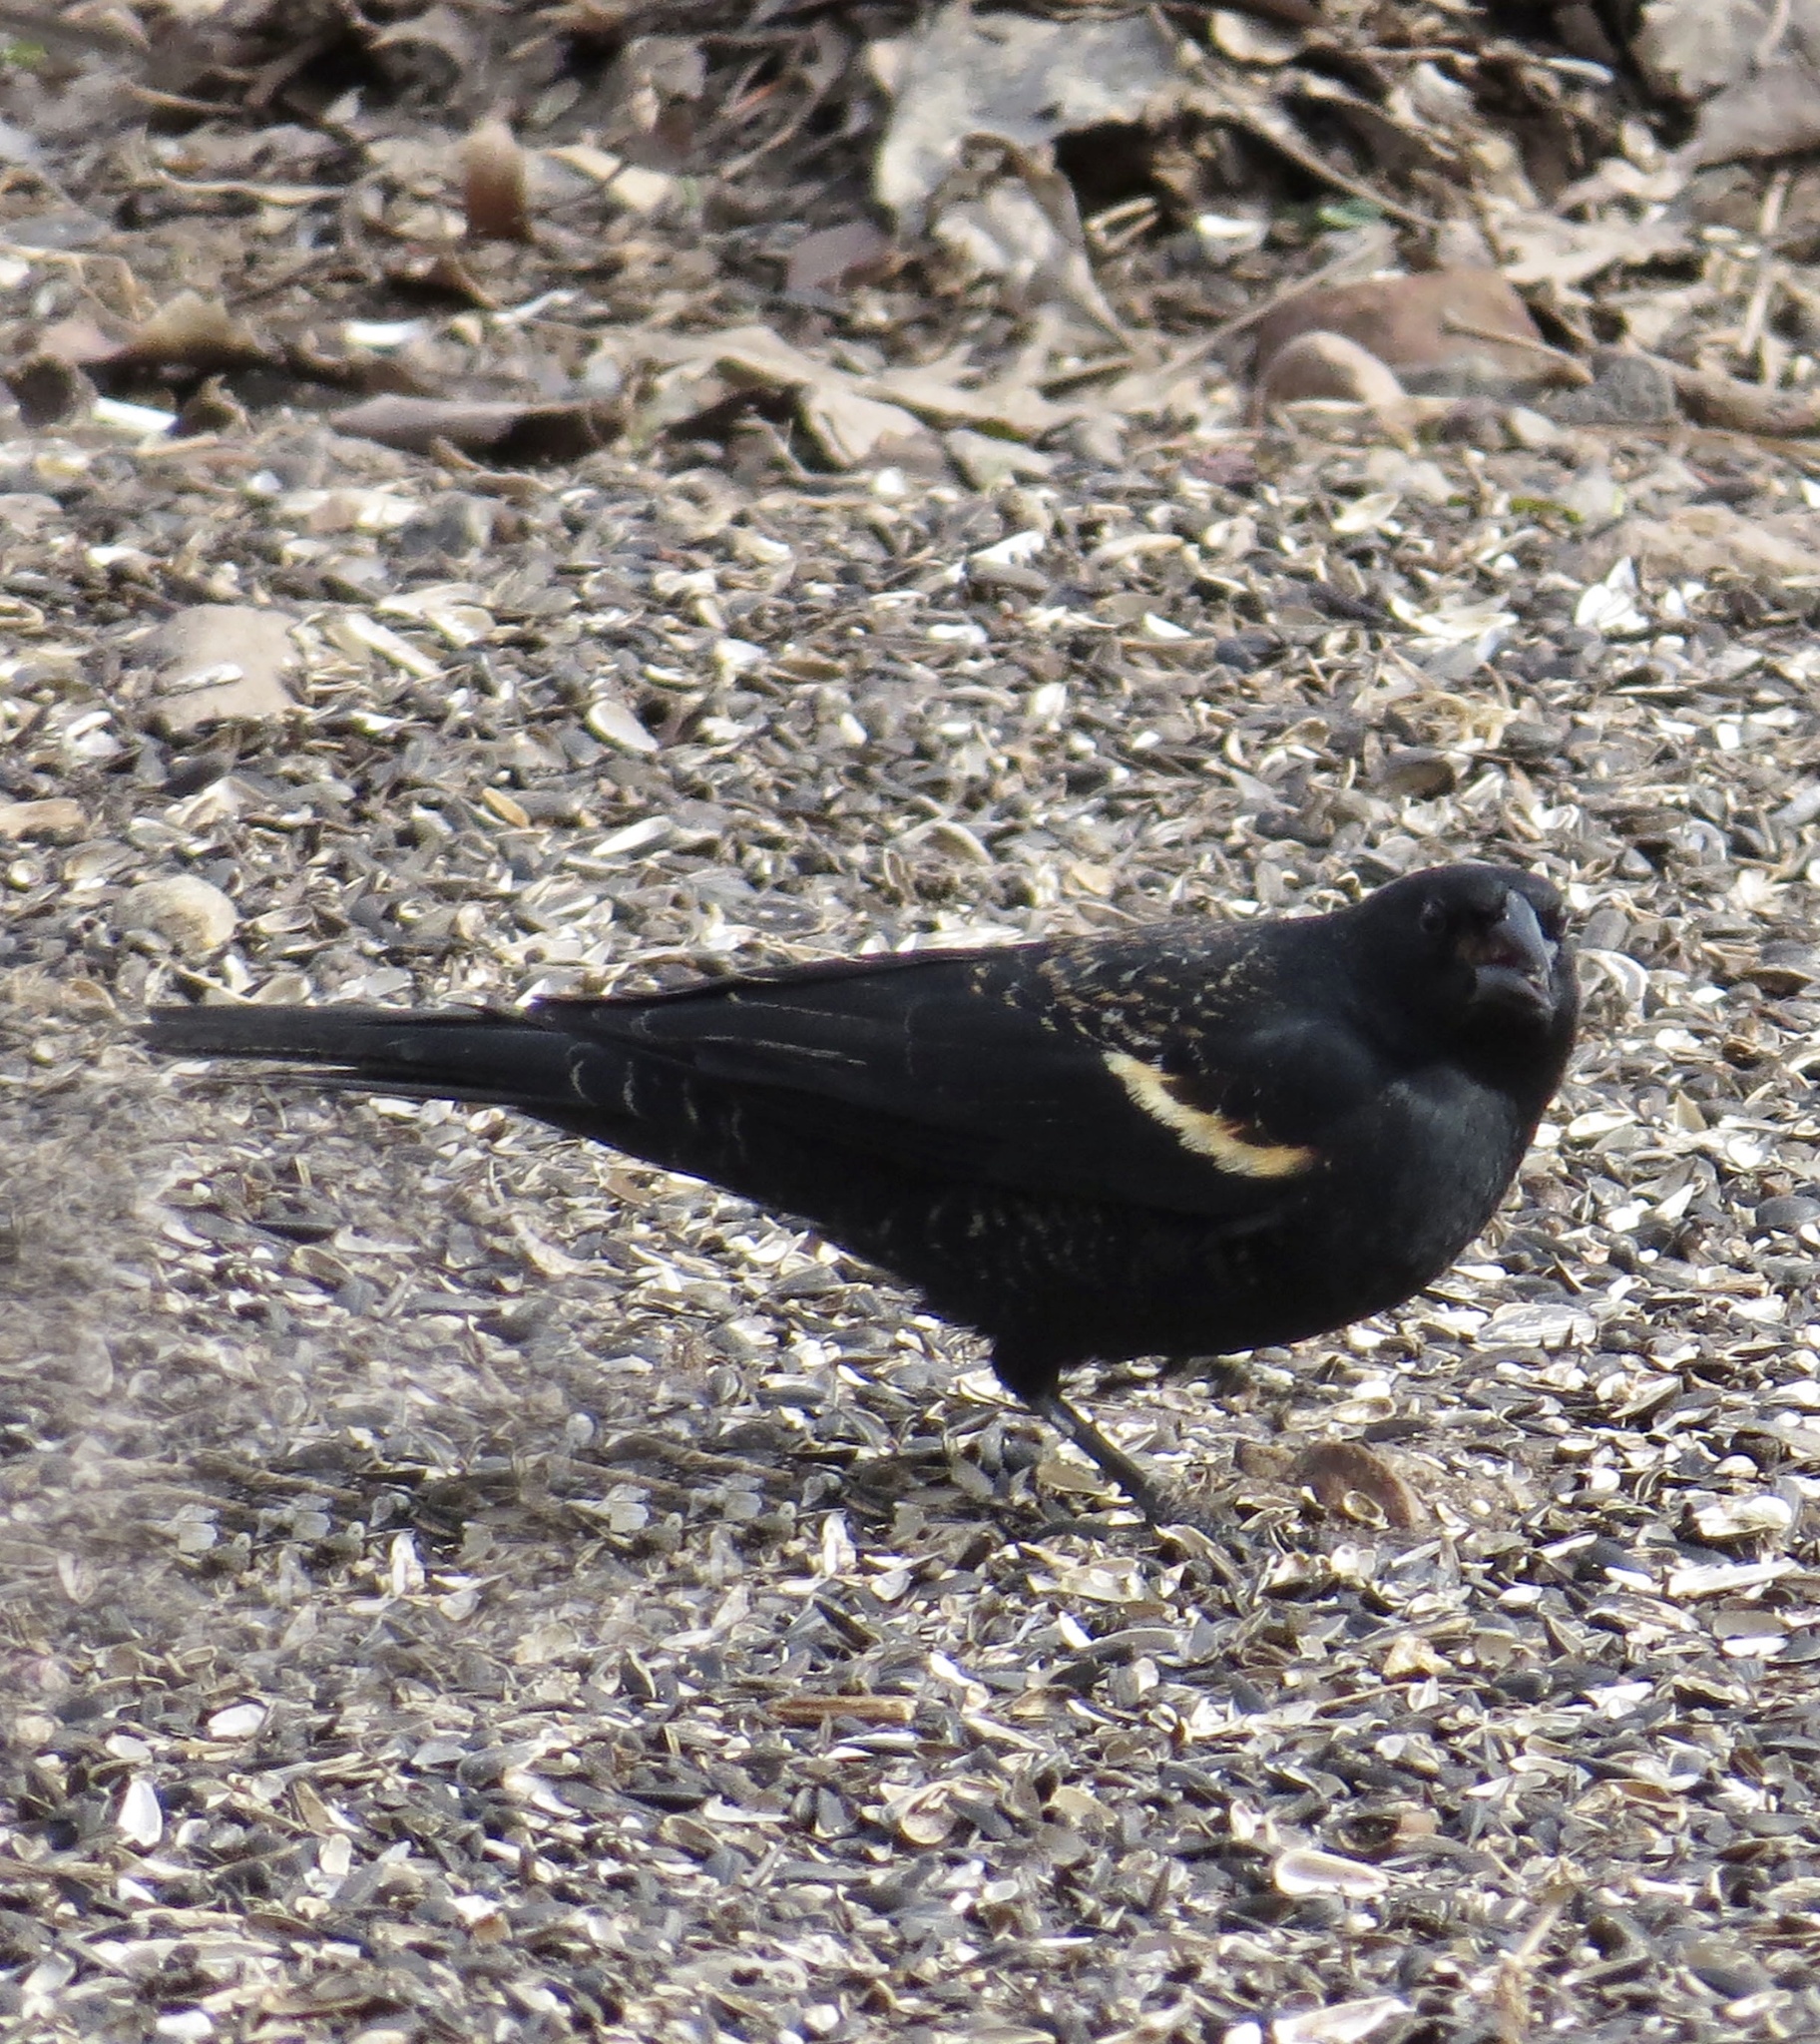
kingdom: Animalia
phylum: Chordata
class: Aves
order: Passeriformes
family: Icteridae
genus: Agelaius
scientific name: Agelaius phoeniceus
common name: Red-winged blackbird
